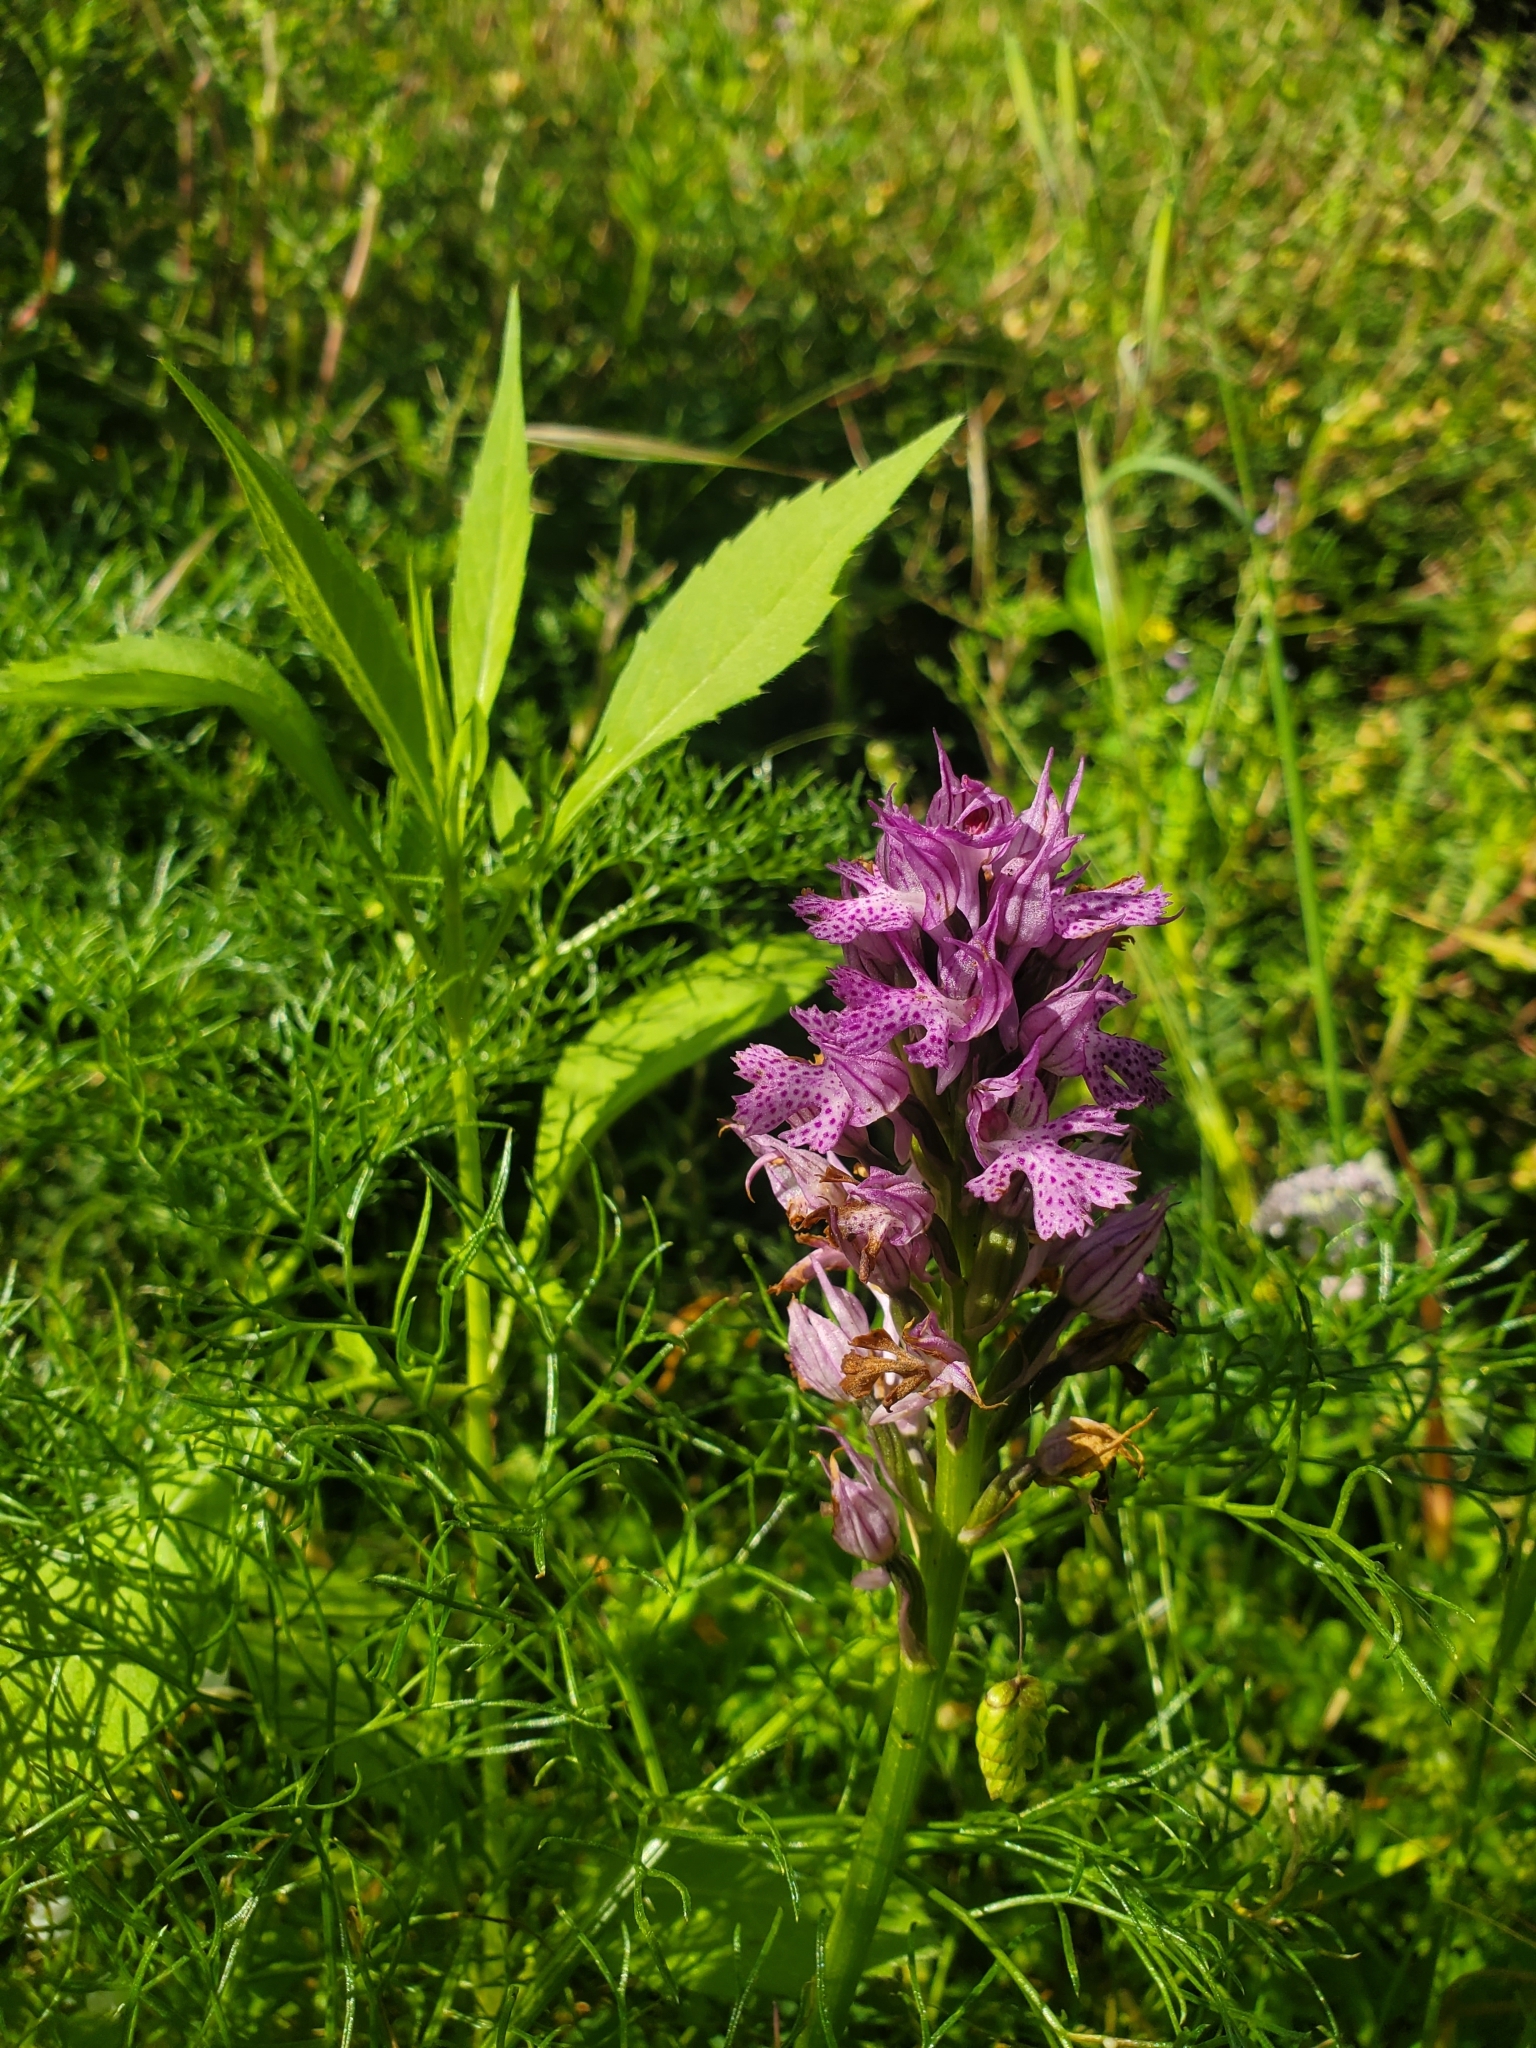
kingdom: Plantae
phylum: Tracheophyta
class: Liliopsida
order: Asparagales
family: Orchidaceae
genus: Neotinea
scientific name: Neotinea tridentata
